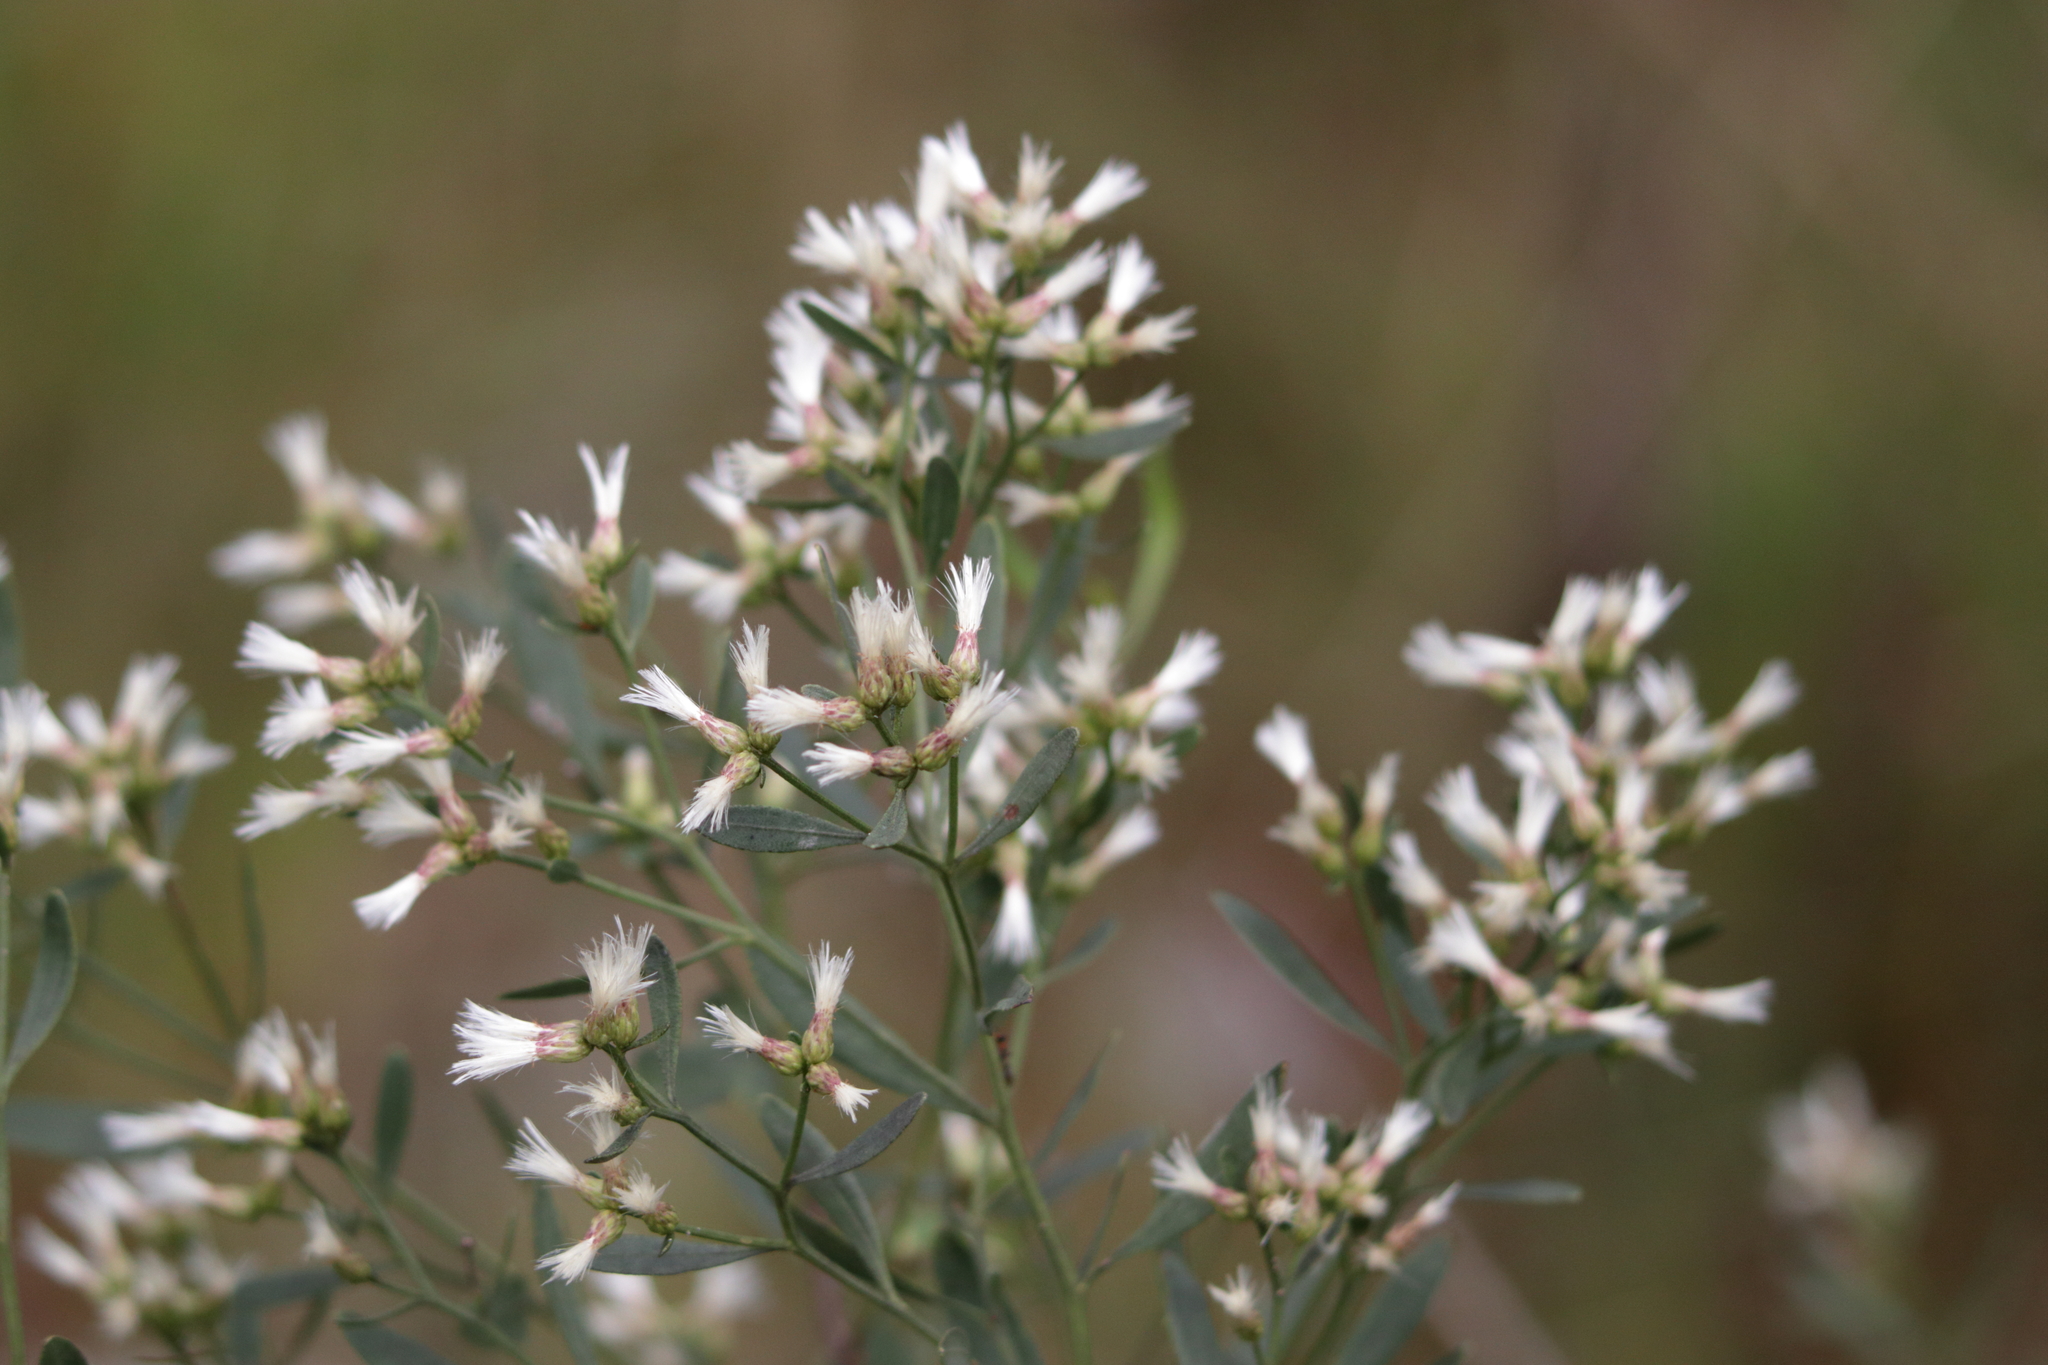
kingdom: Plantae
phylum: Tracheophyta
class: Magnoliopsida
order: Asterales
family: Asteraceae
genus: Baccharis
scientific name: Baccharis halimifolia
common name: Eastern baccharis
